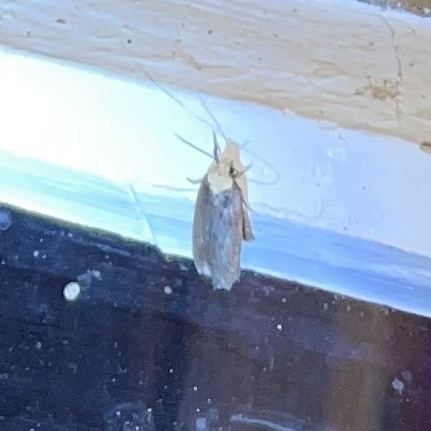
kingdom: Animalia
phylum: Arthropoda
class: Insecta
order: Lepidoptera
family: Depressariidae
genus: Depressaria
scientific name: Depressaria depressana
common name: Lost flat-body
